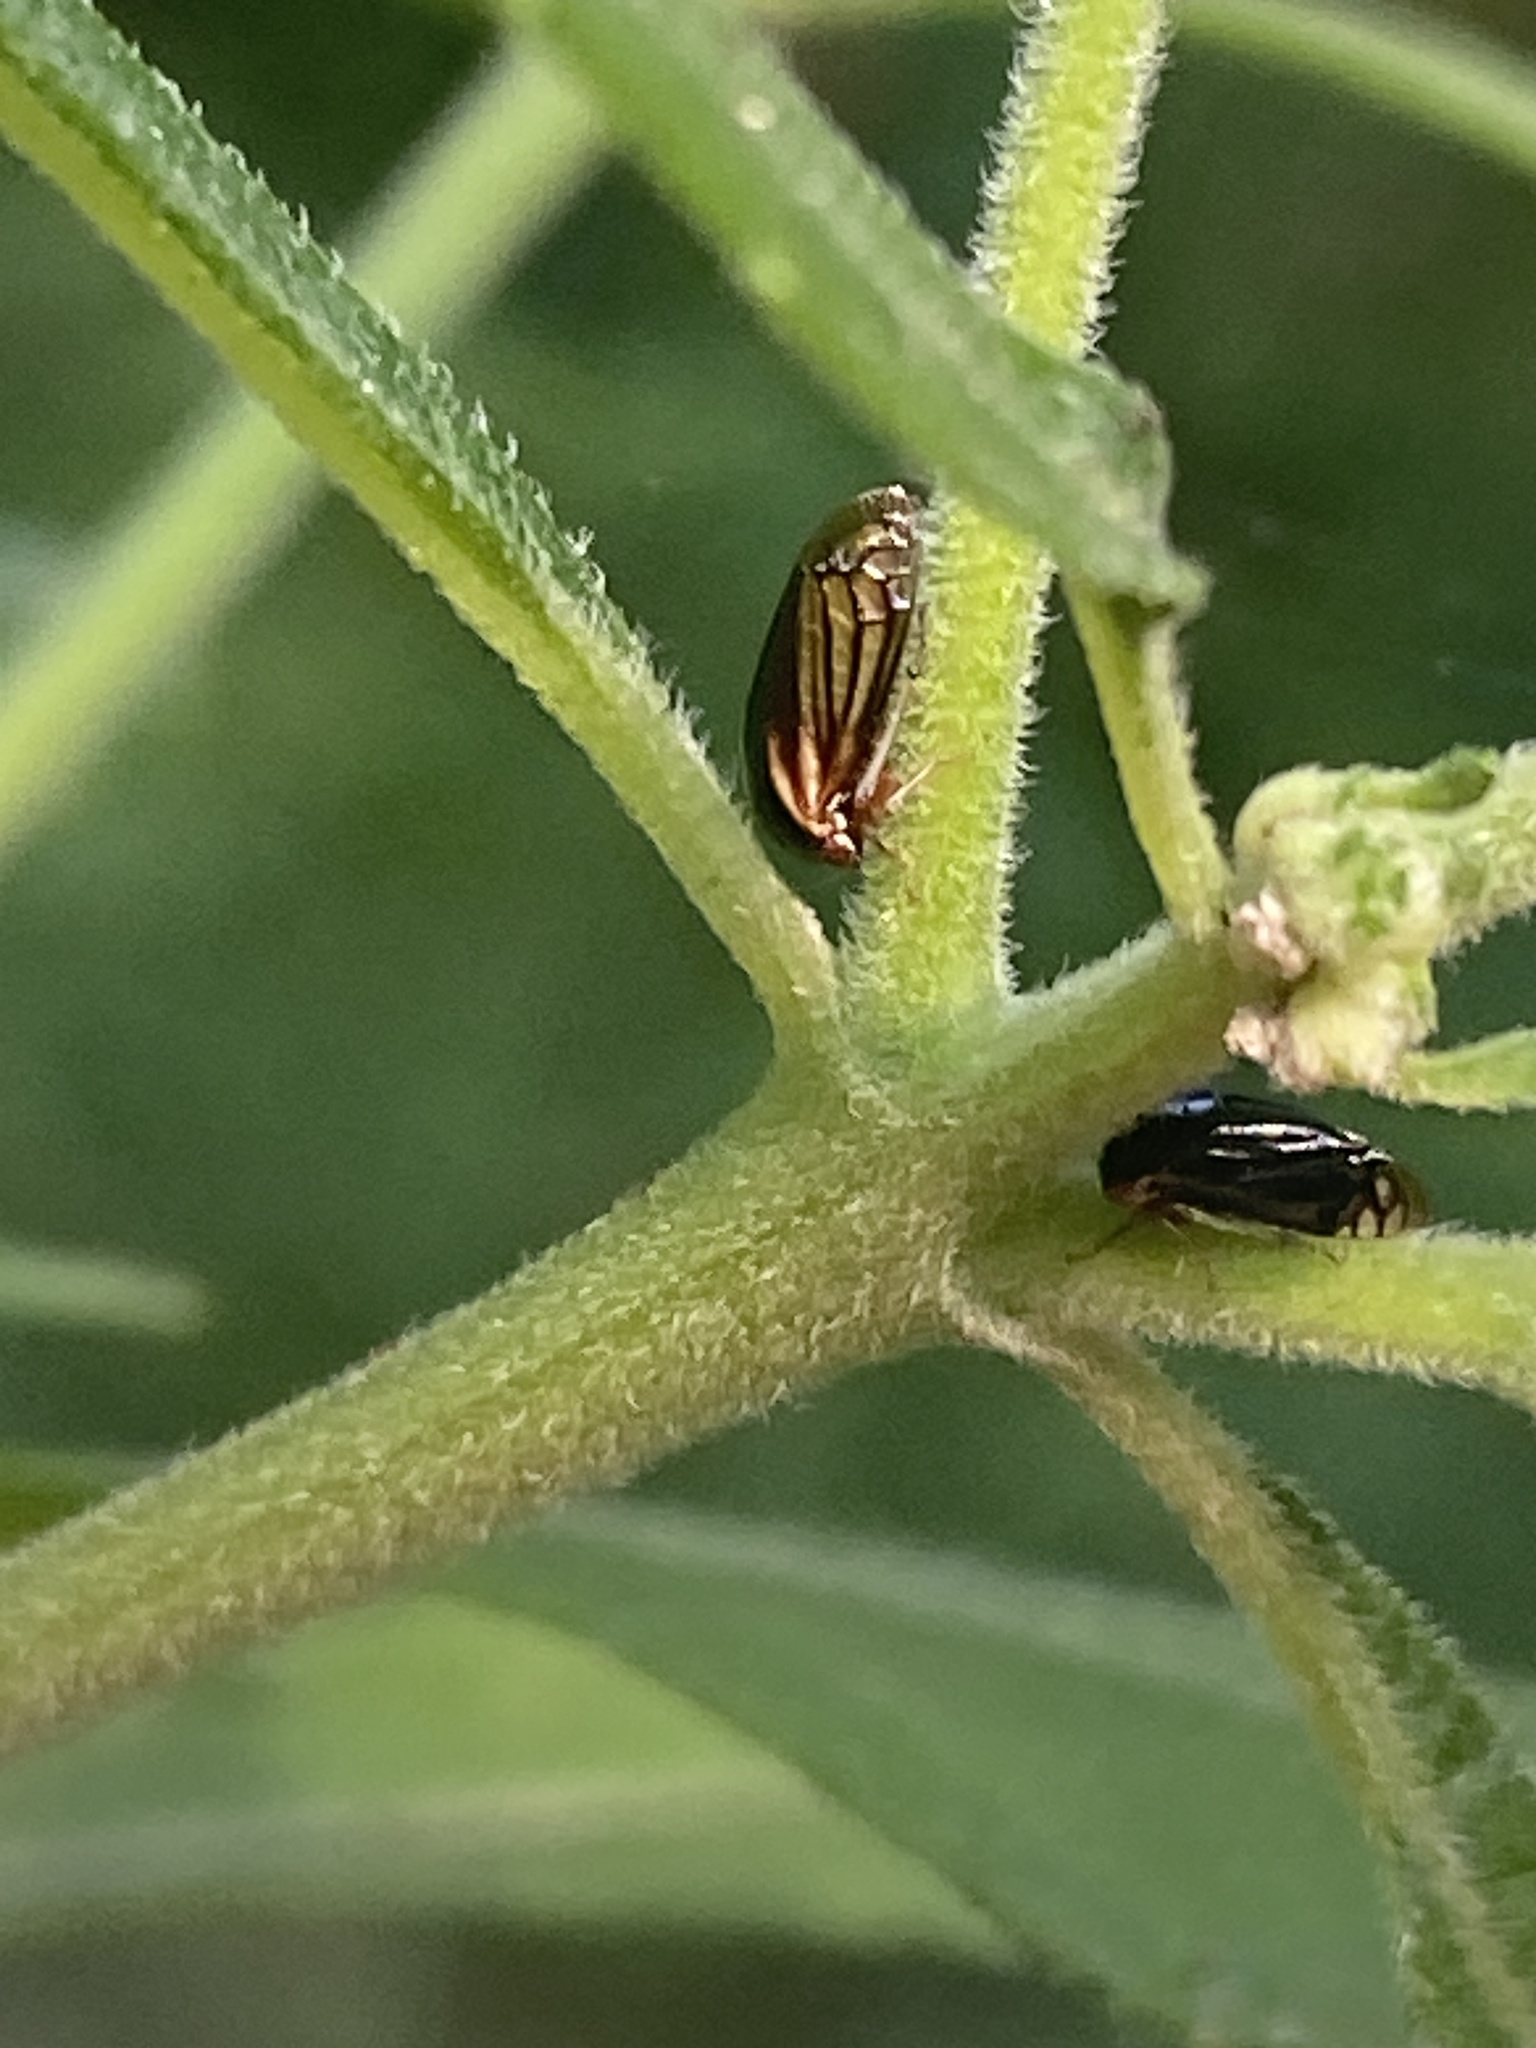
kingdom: Animalia
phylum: Arthropoda
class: Insecta
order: Hemiptera
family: Membracidae
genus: Acutalis
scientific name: Acutalis tartarea
